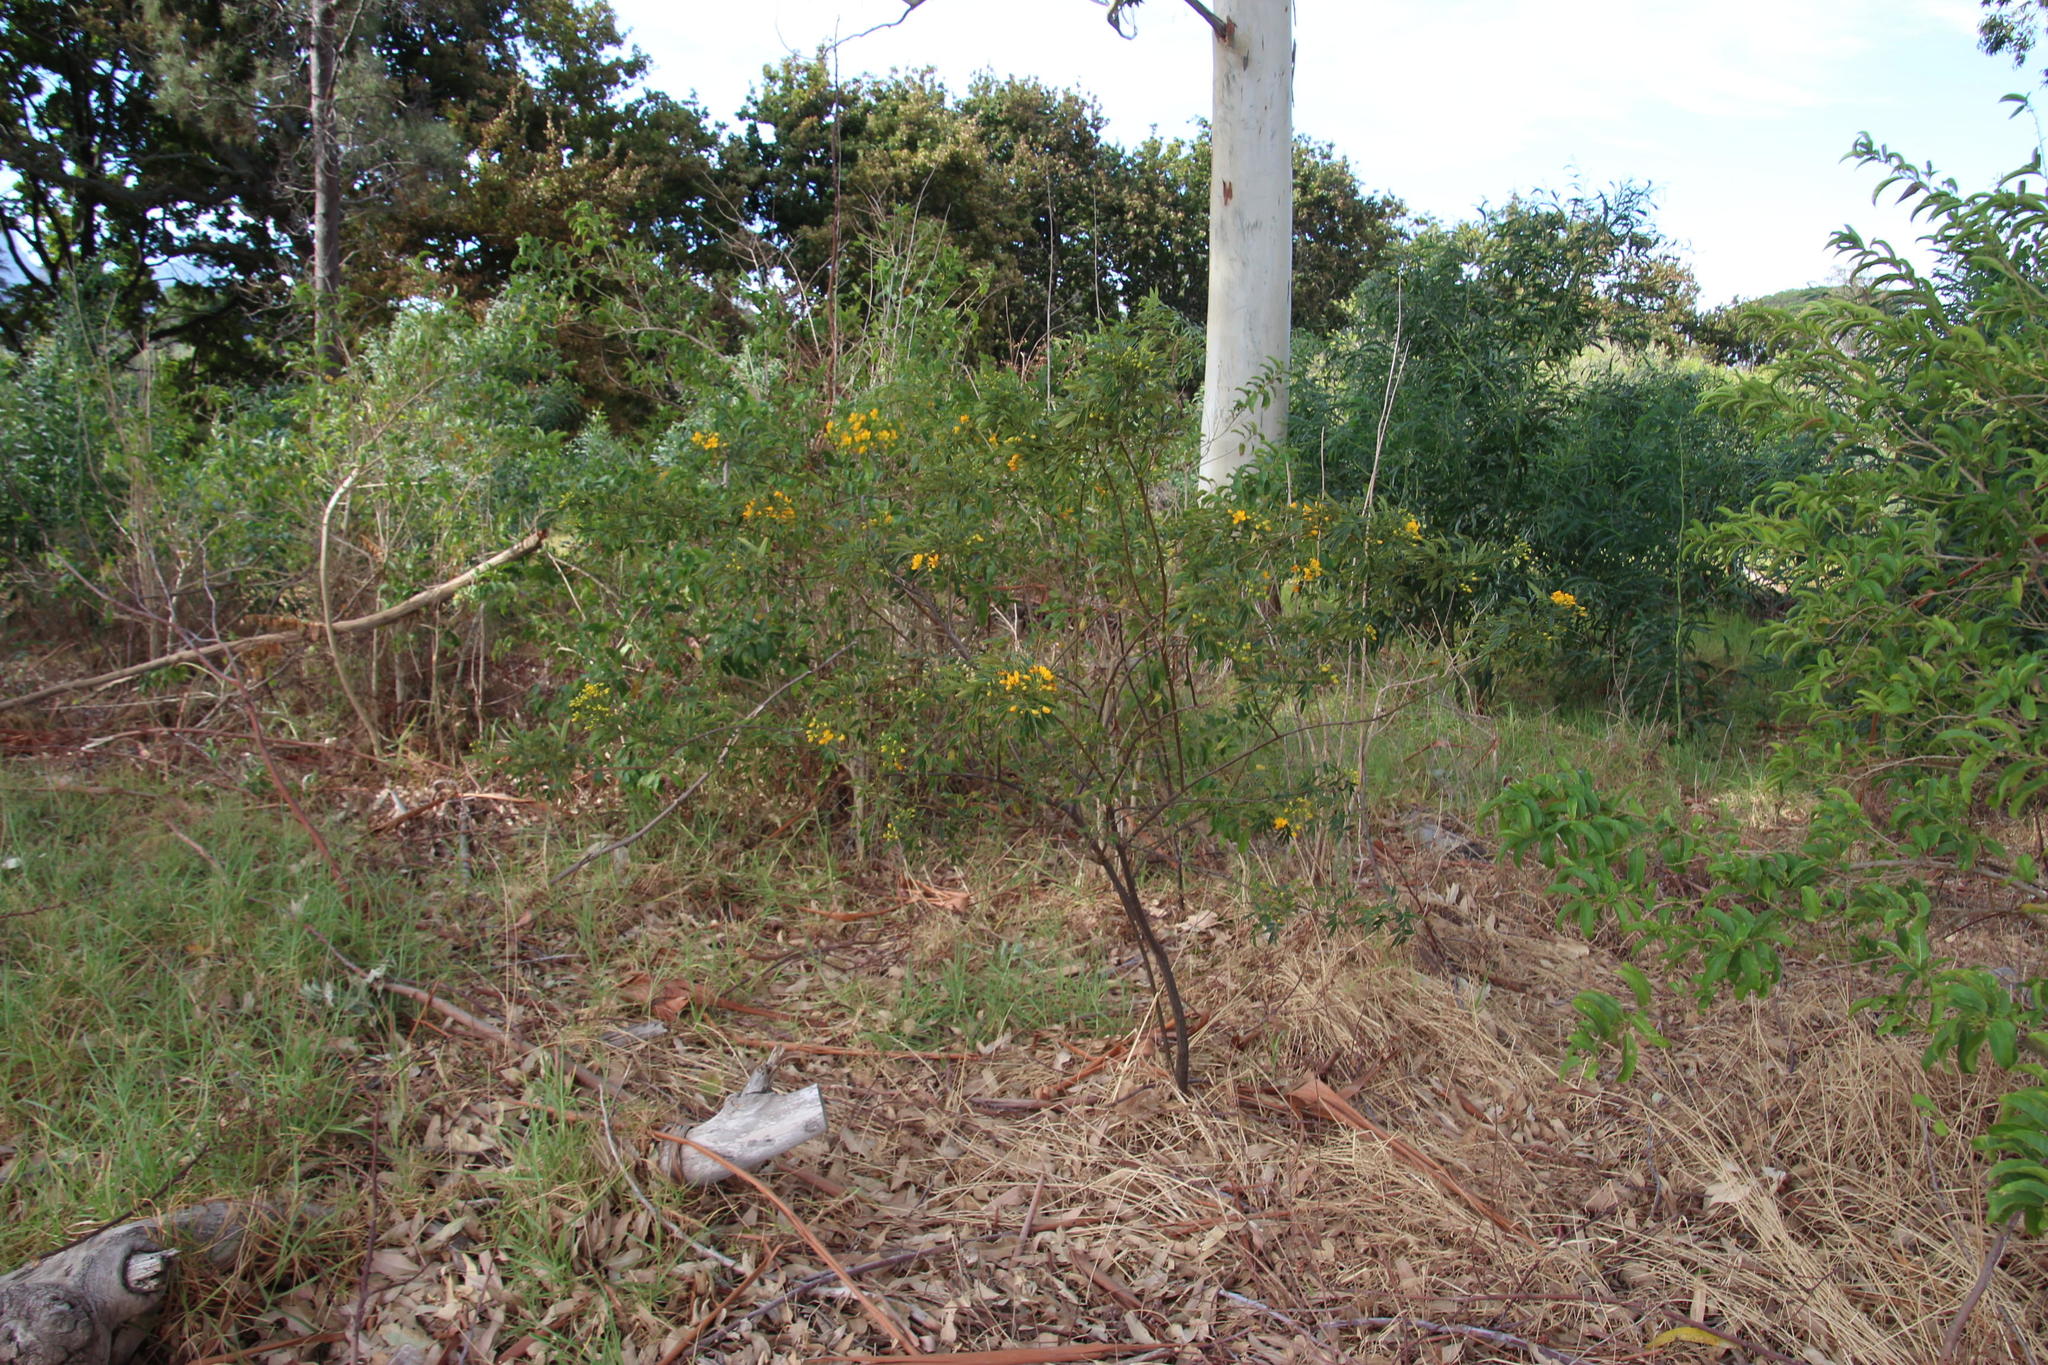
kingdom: Plantae
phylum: Tracheophyta
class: Magnoliopsida
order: Fabales
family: Fabaceae
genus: Senna
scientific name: Senna corymbosa
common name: Argentine senna
